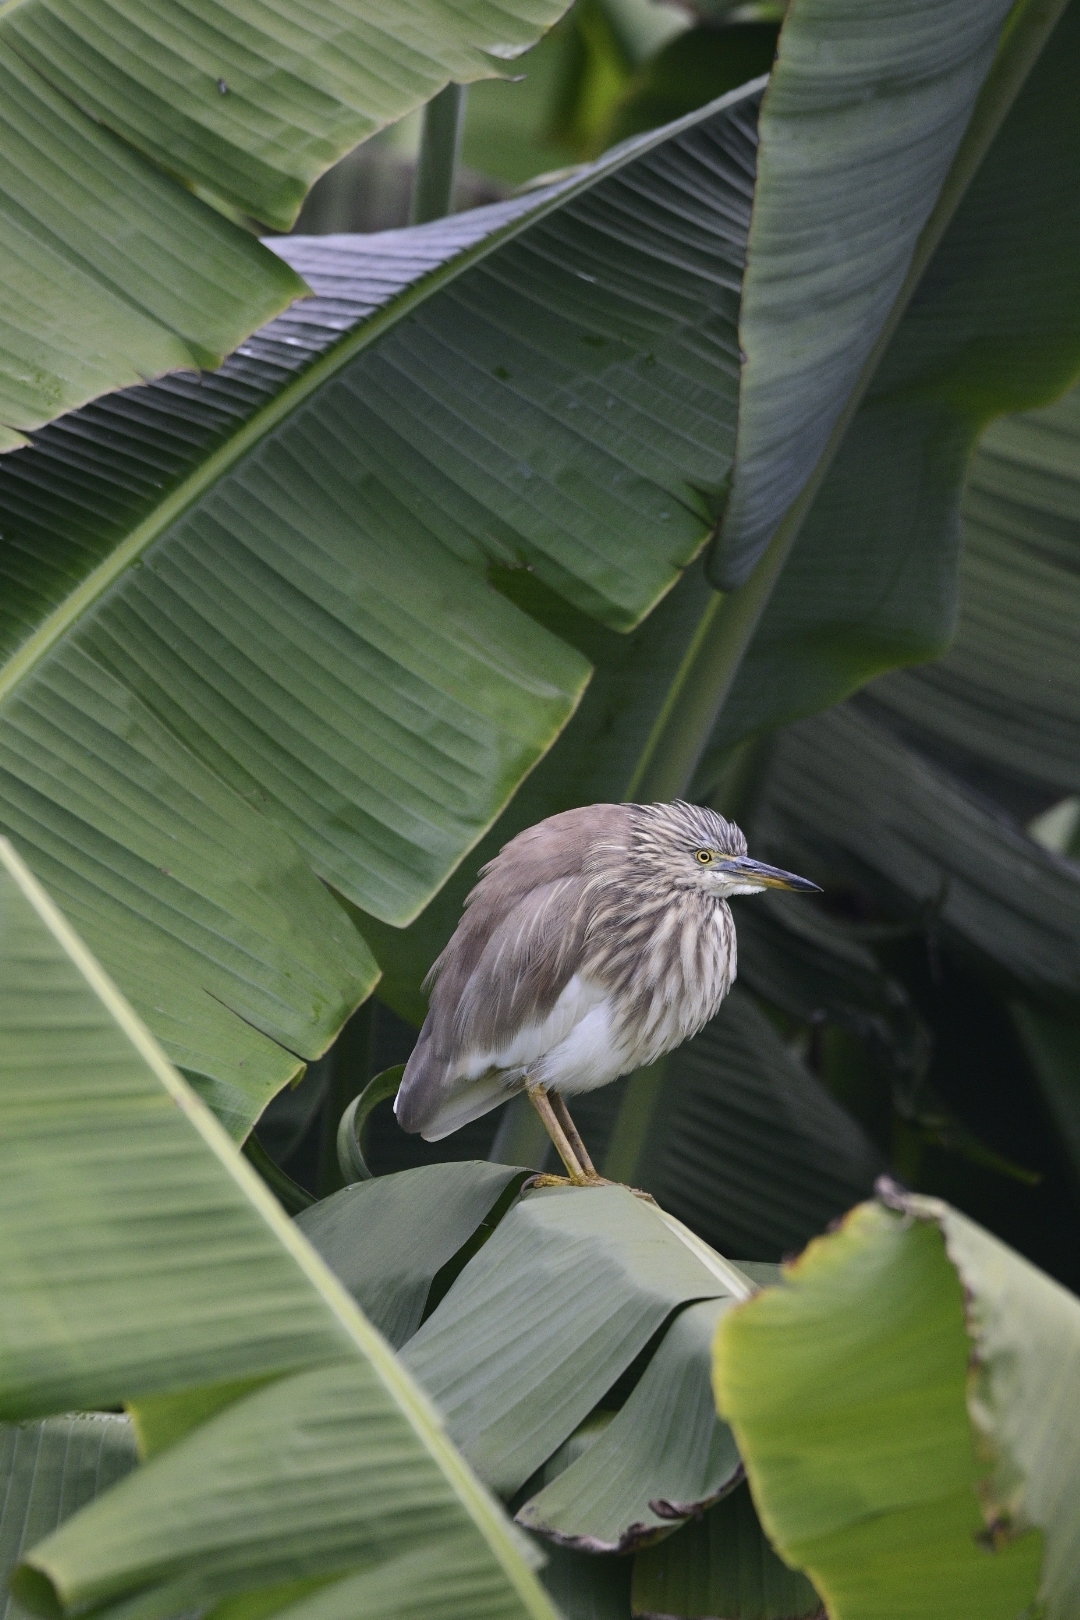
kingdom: Animalia
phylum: Chordata
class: Aves
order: Pelecaniformes
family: Ardeidae
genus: Ardeola
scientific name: Ardeola grayii
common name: Indian pond heron
